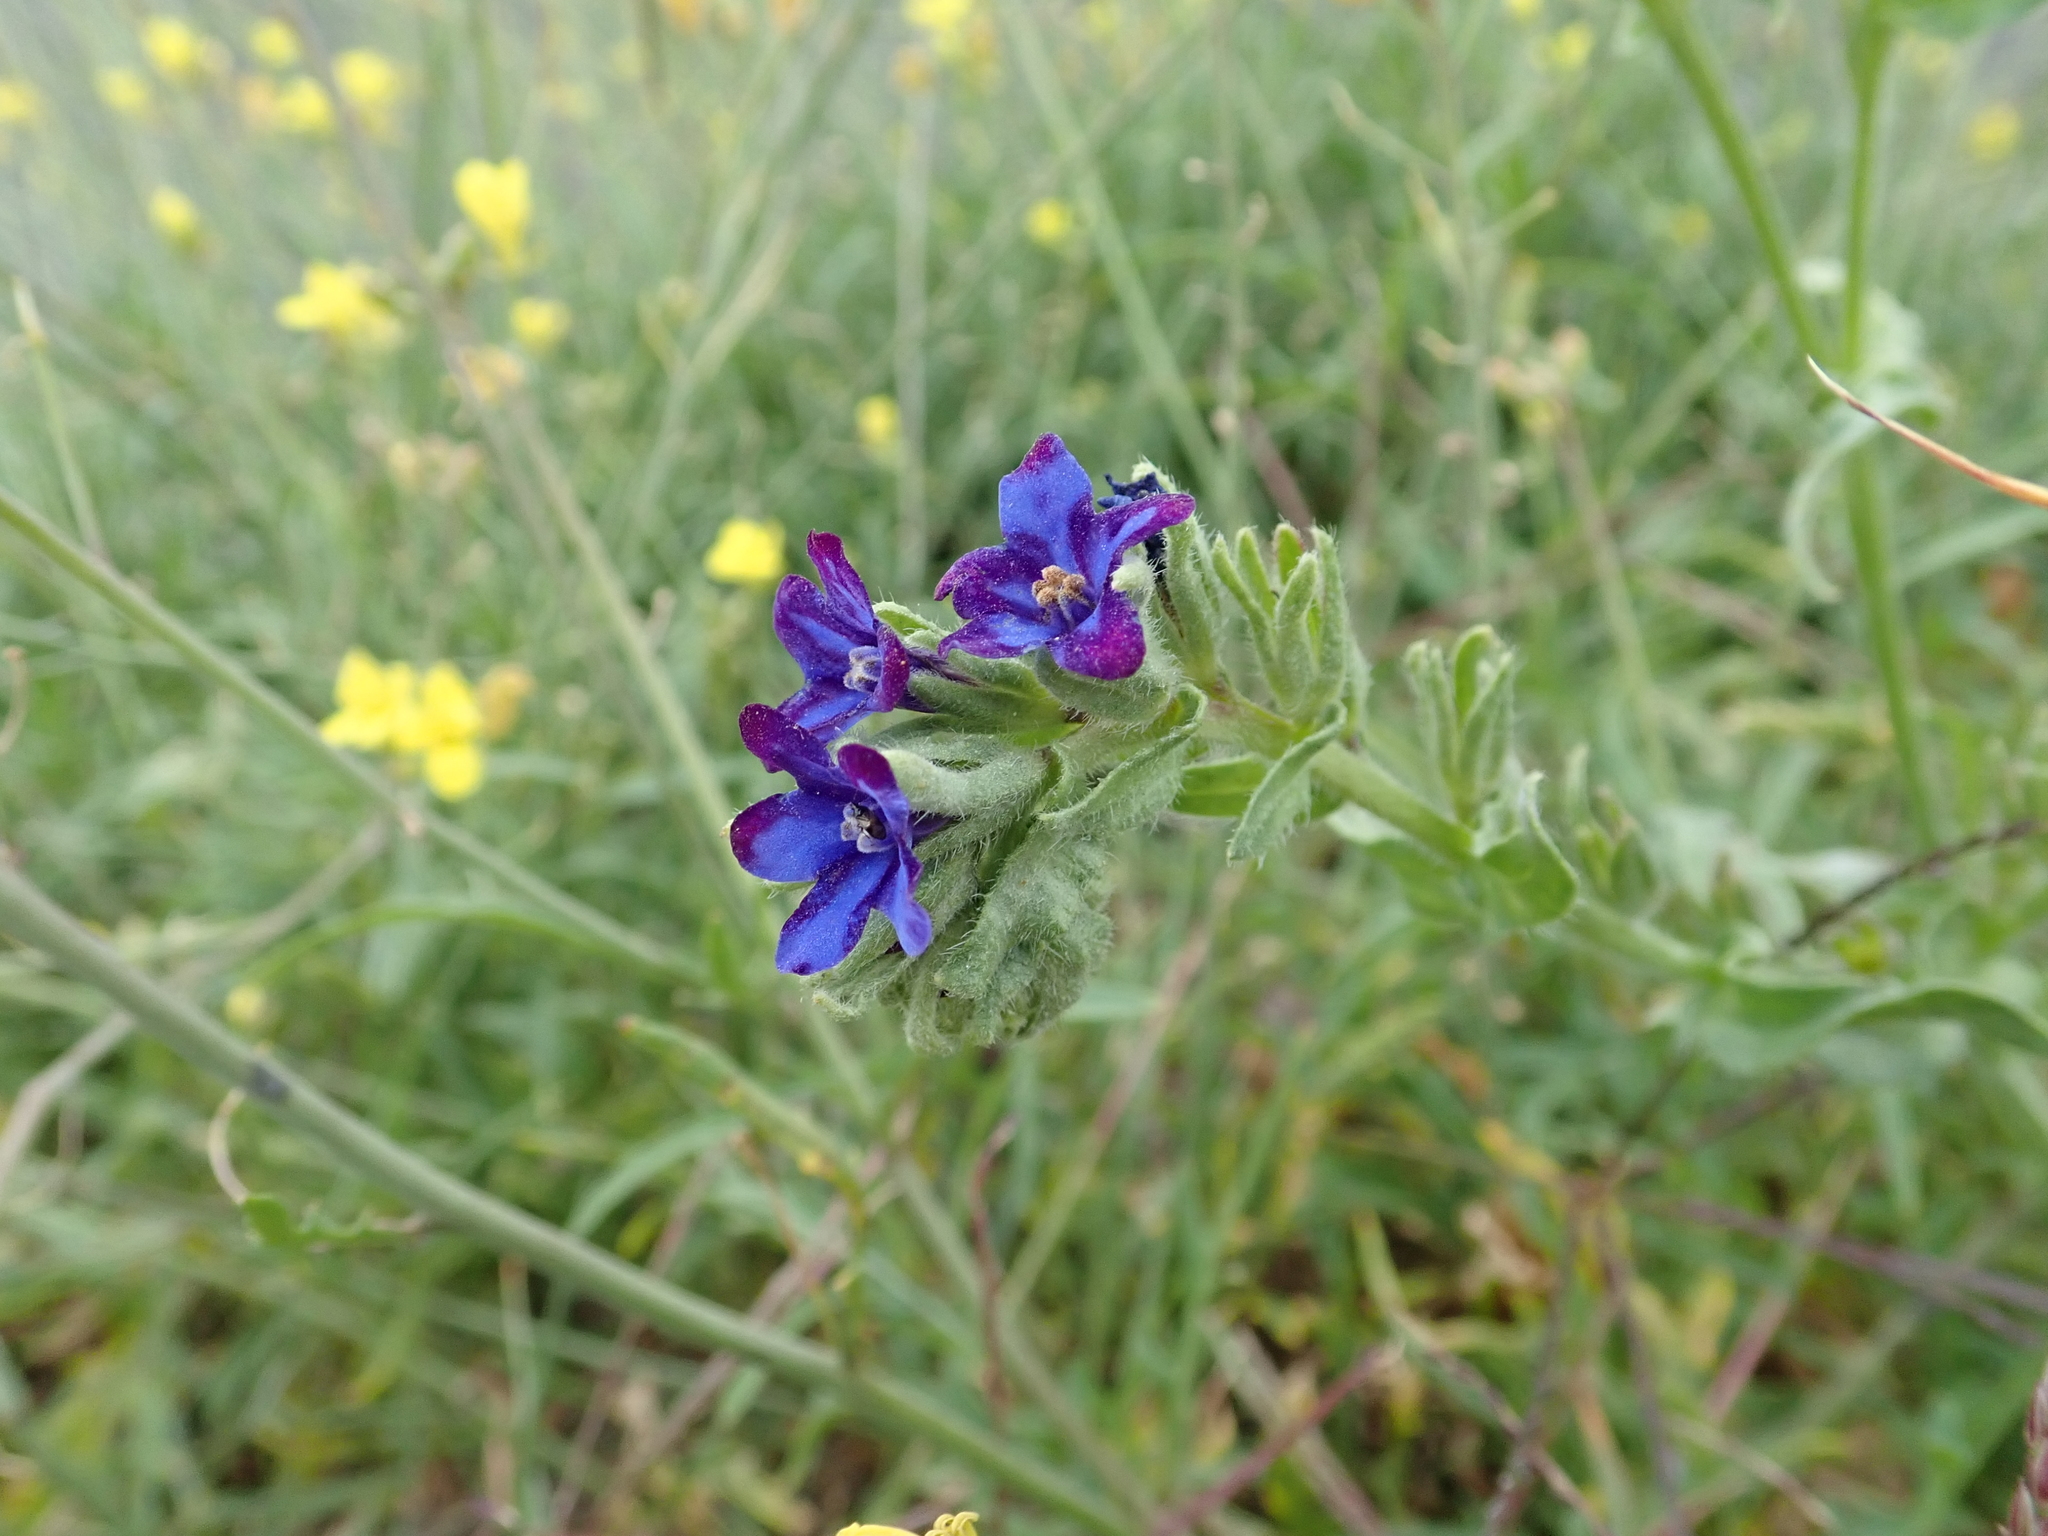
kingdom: Plantae
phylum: Tracheophyta
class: Magnoliopsida
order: Boraginales
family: Boraginaceae
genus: Anchusa
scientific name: Anchusa officinalis
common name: Alkanet
